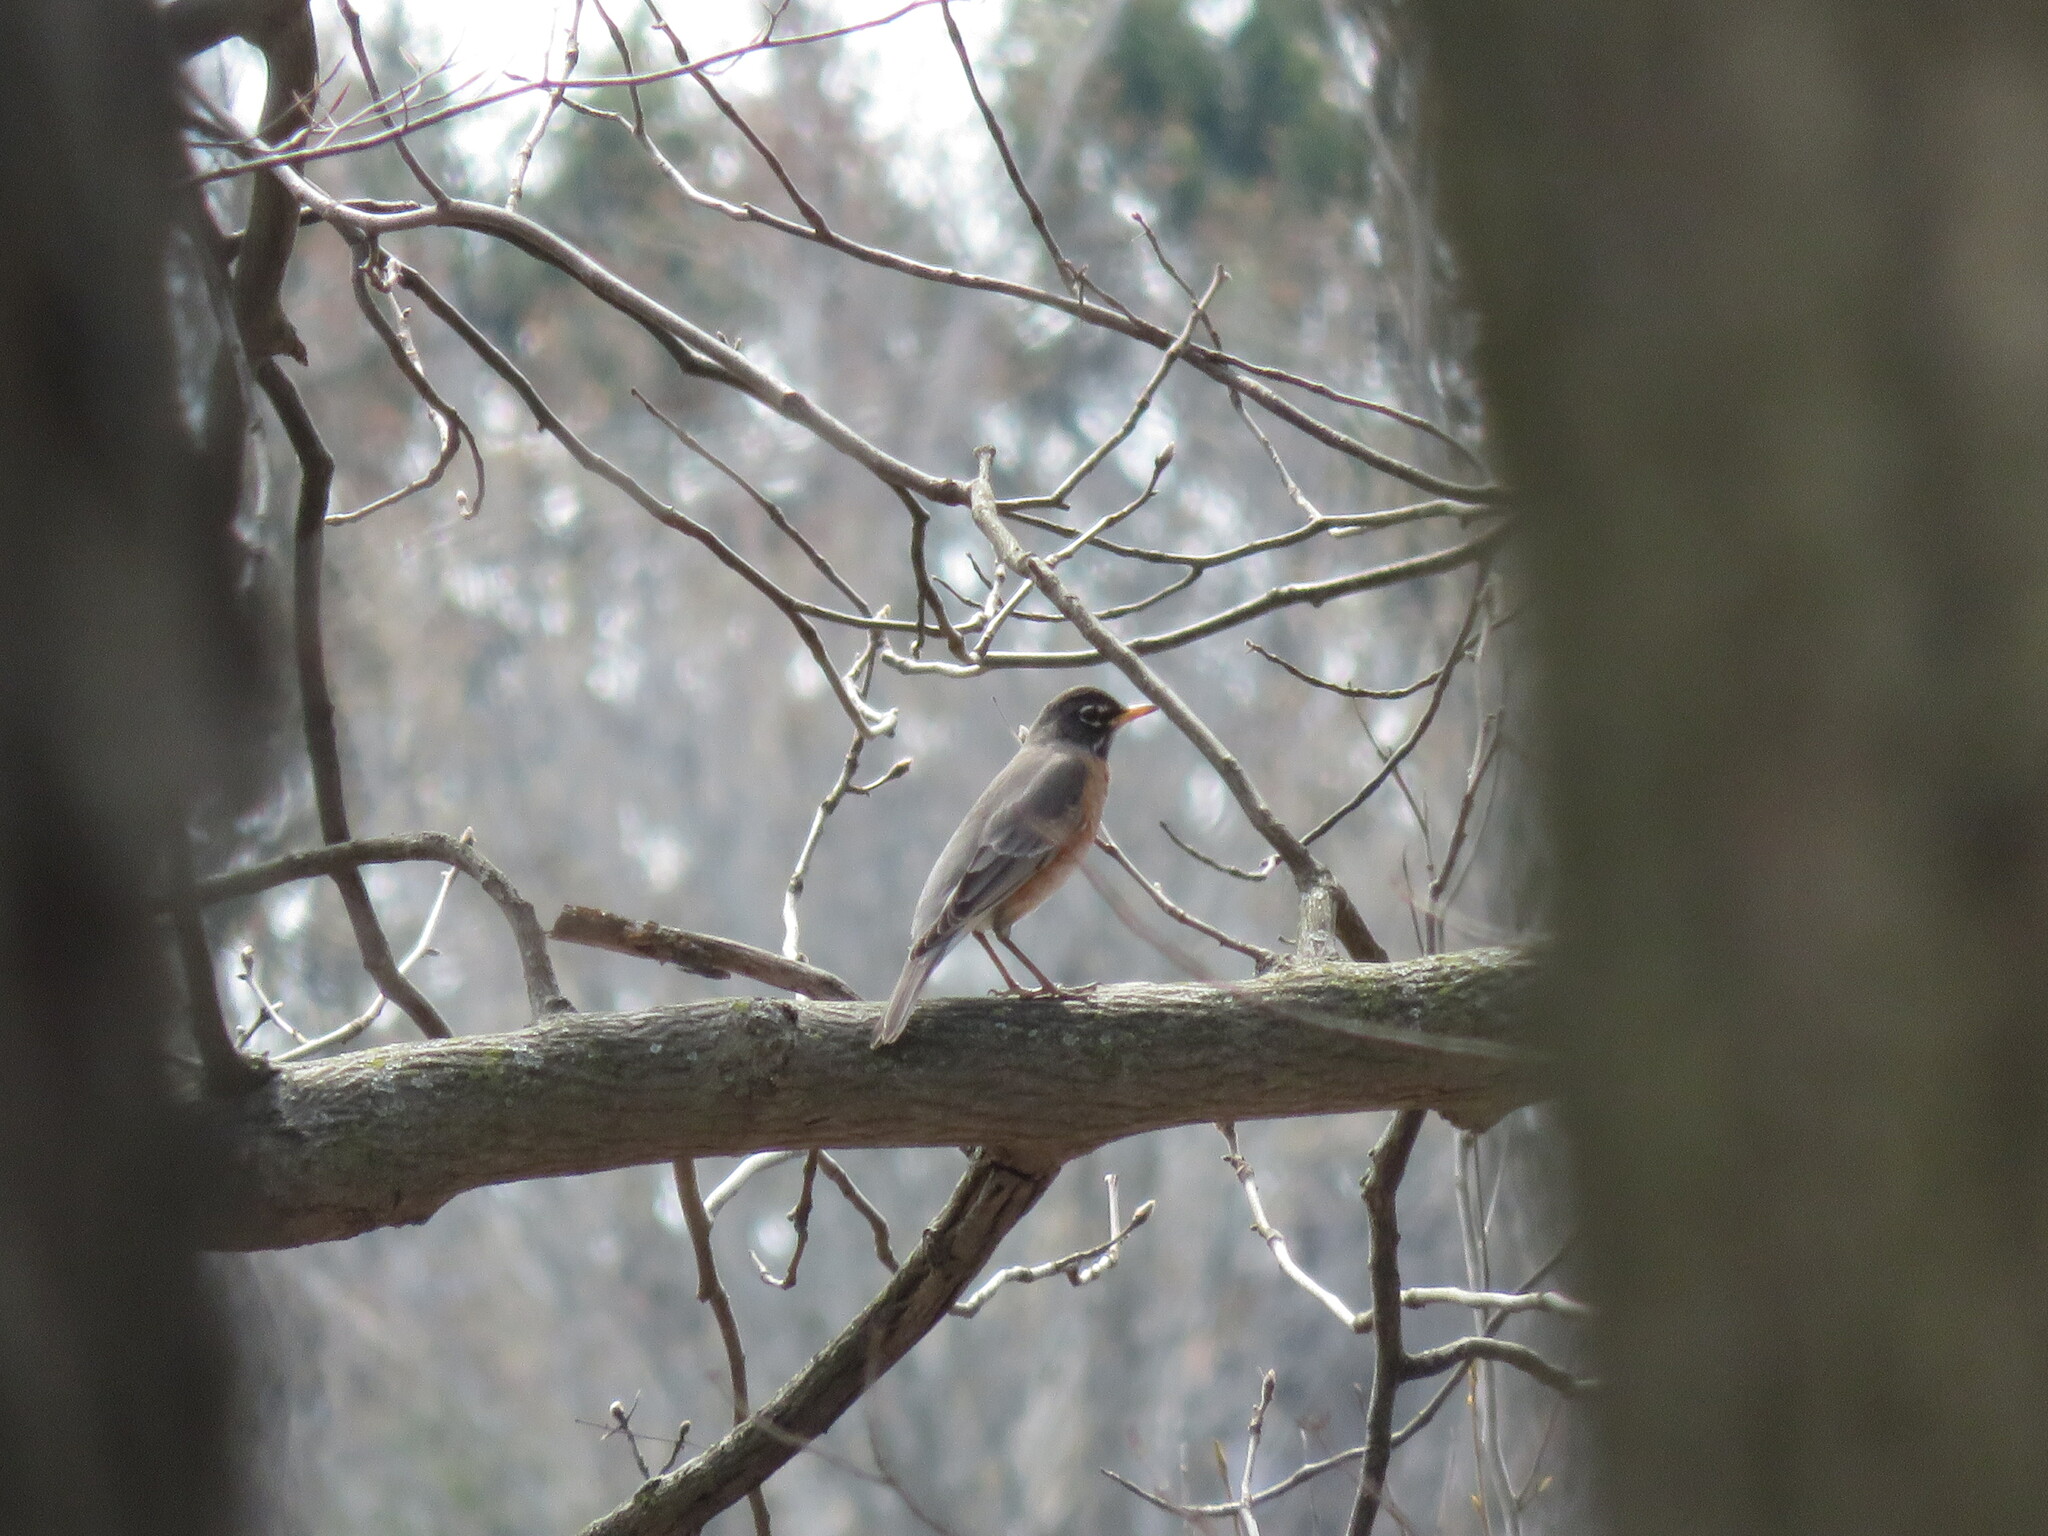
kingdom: Animalia
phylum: Chordata
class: Aves
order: Passeriformes
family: Turdidae
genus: Turdus
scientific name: Turdus migratorius
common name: American robin
